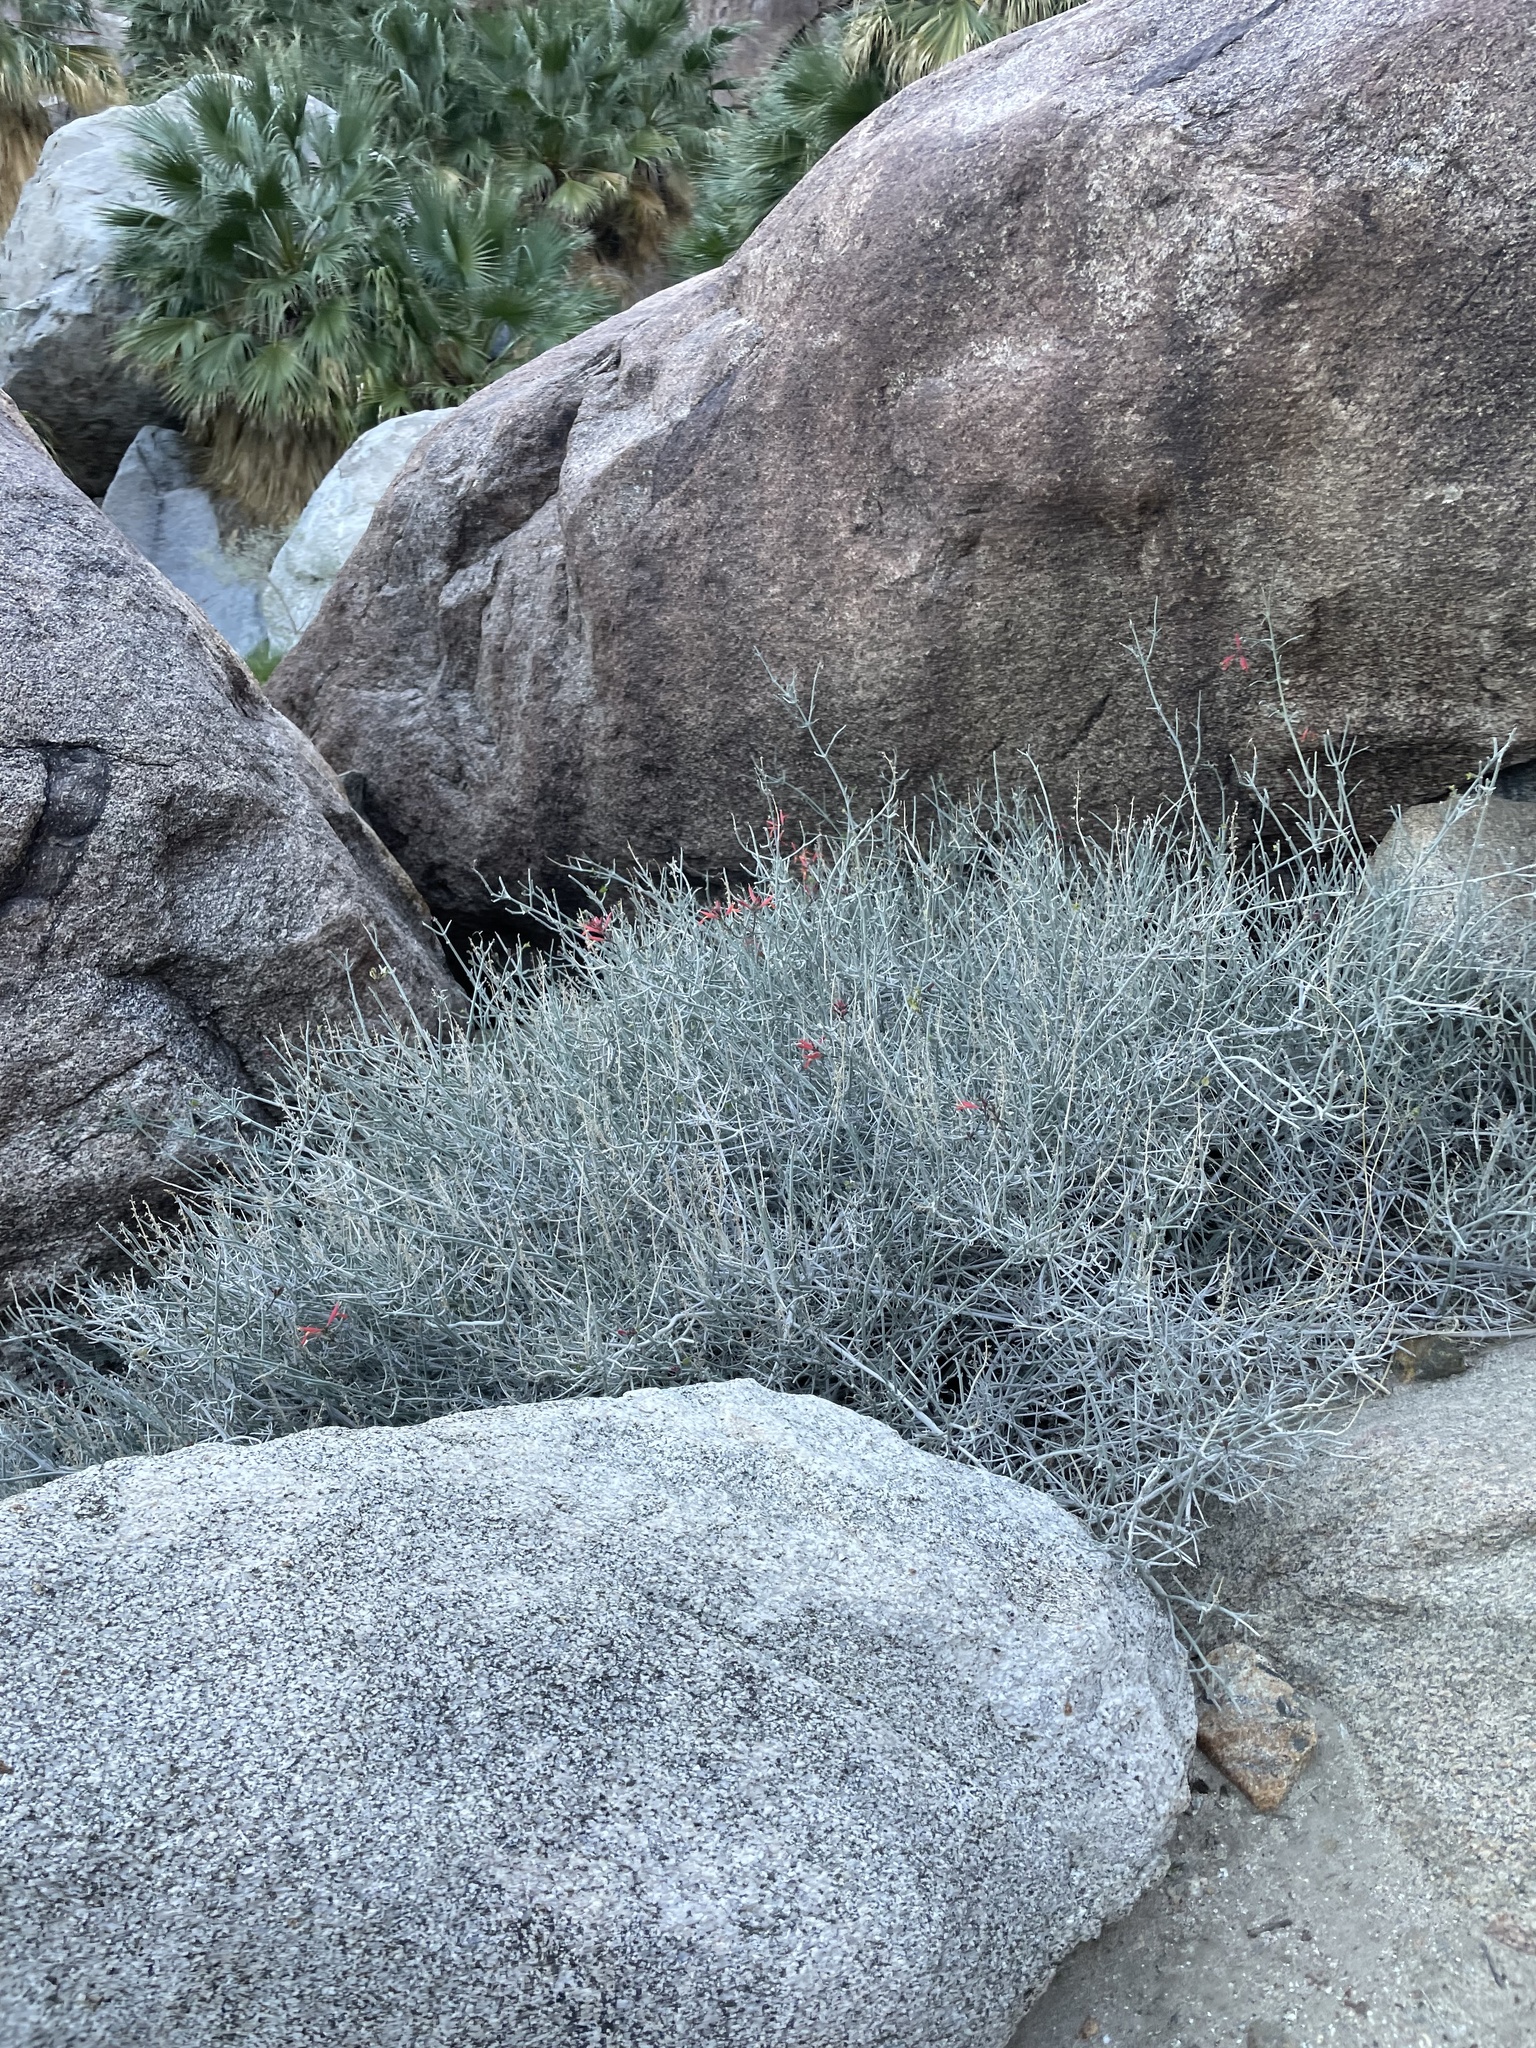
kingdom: Plantae
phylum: Tracheophyta
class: Magnoliopsida
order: Lamiales
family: Acanthaceae
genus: Justicia
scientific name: Justicia californica
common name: Chuparosa-honeysuckle
